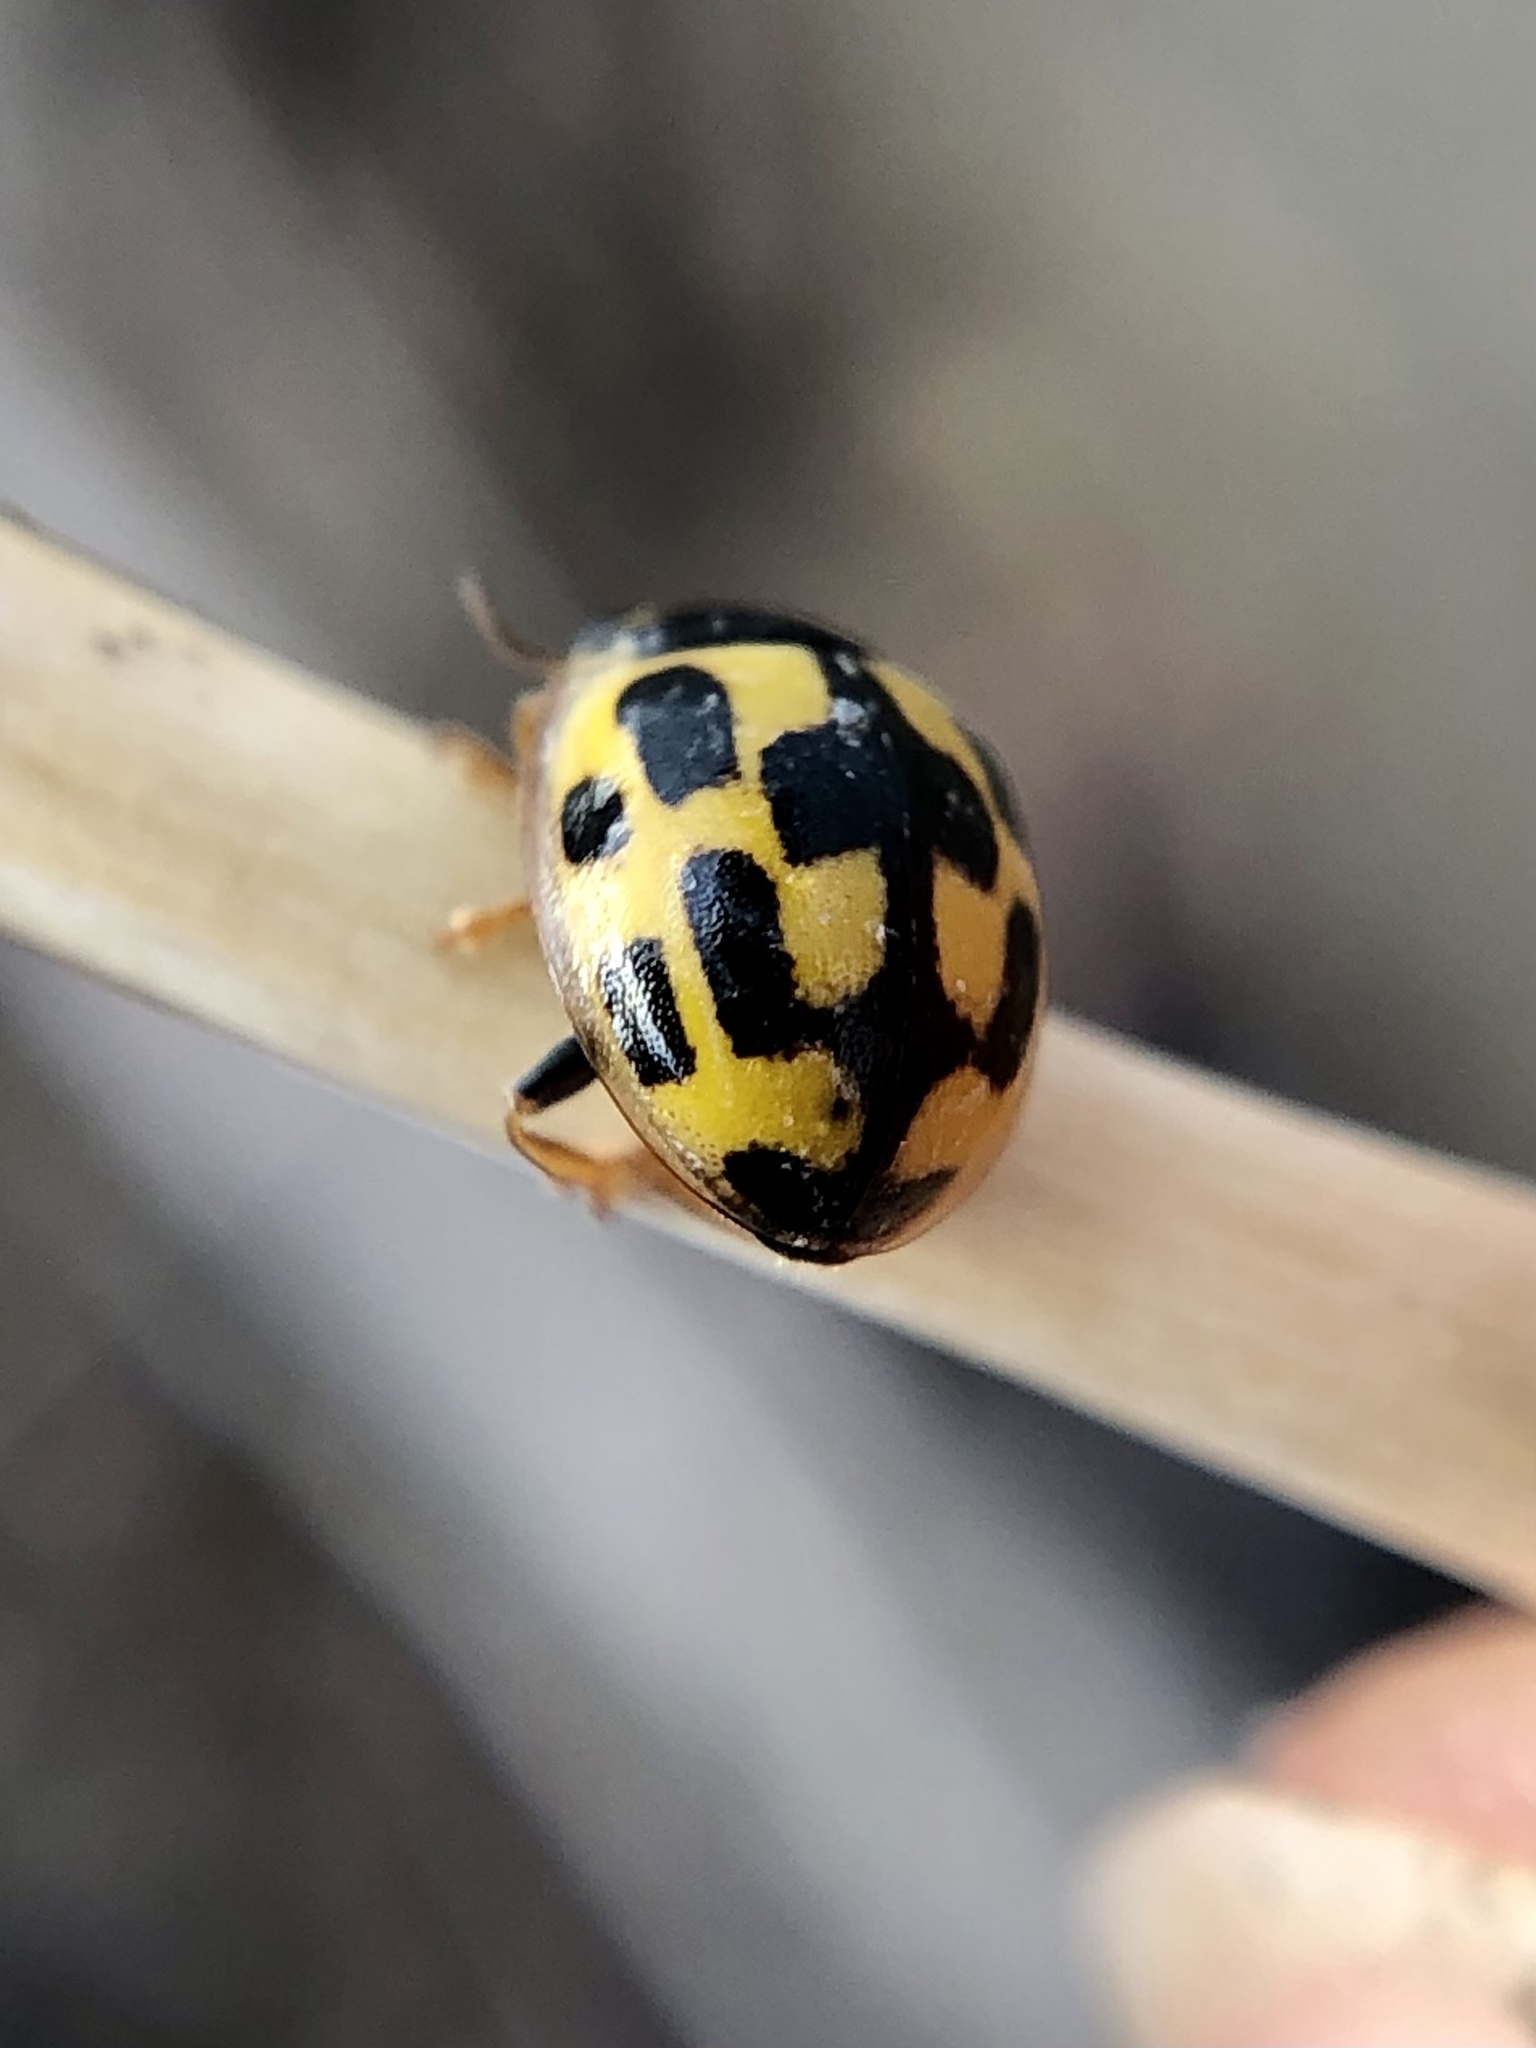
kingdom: Animalia
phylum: Arthropoda
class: Insecta
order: Coleoptera
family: Coccinellidae
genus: Propylaea
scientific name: Propylaea quatuordecimpunctata
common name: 14-spotted ladybird beetle
